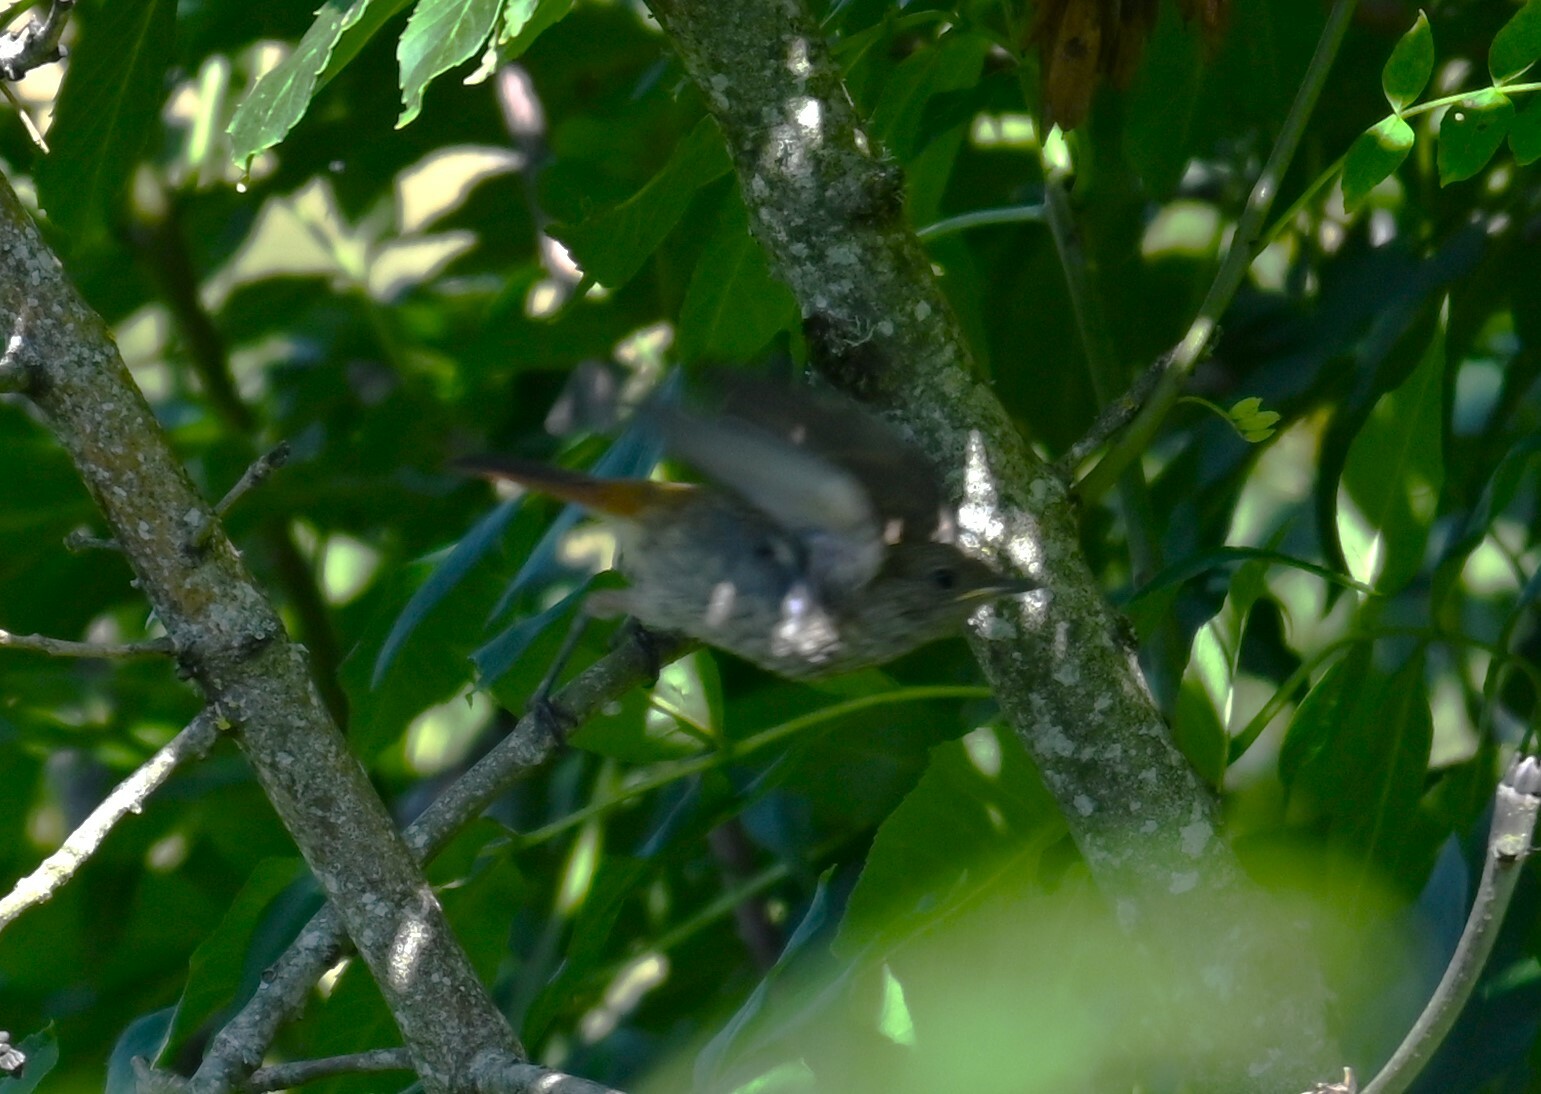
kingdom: Animalia
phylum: Chordata
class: Aves
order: Passeriformes
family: Muscicapidae
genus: Phoenicurus
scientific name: Phoenicurus phoenicurus
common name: Common redstart
